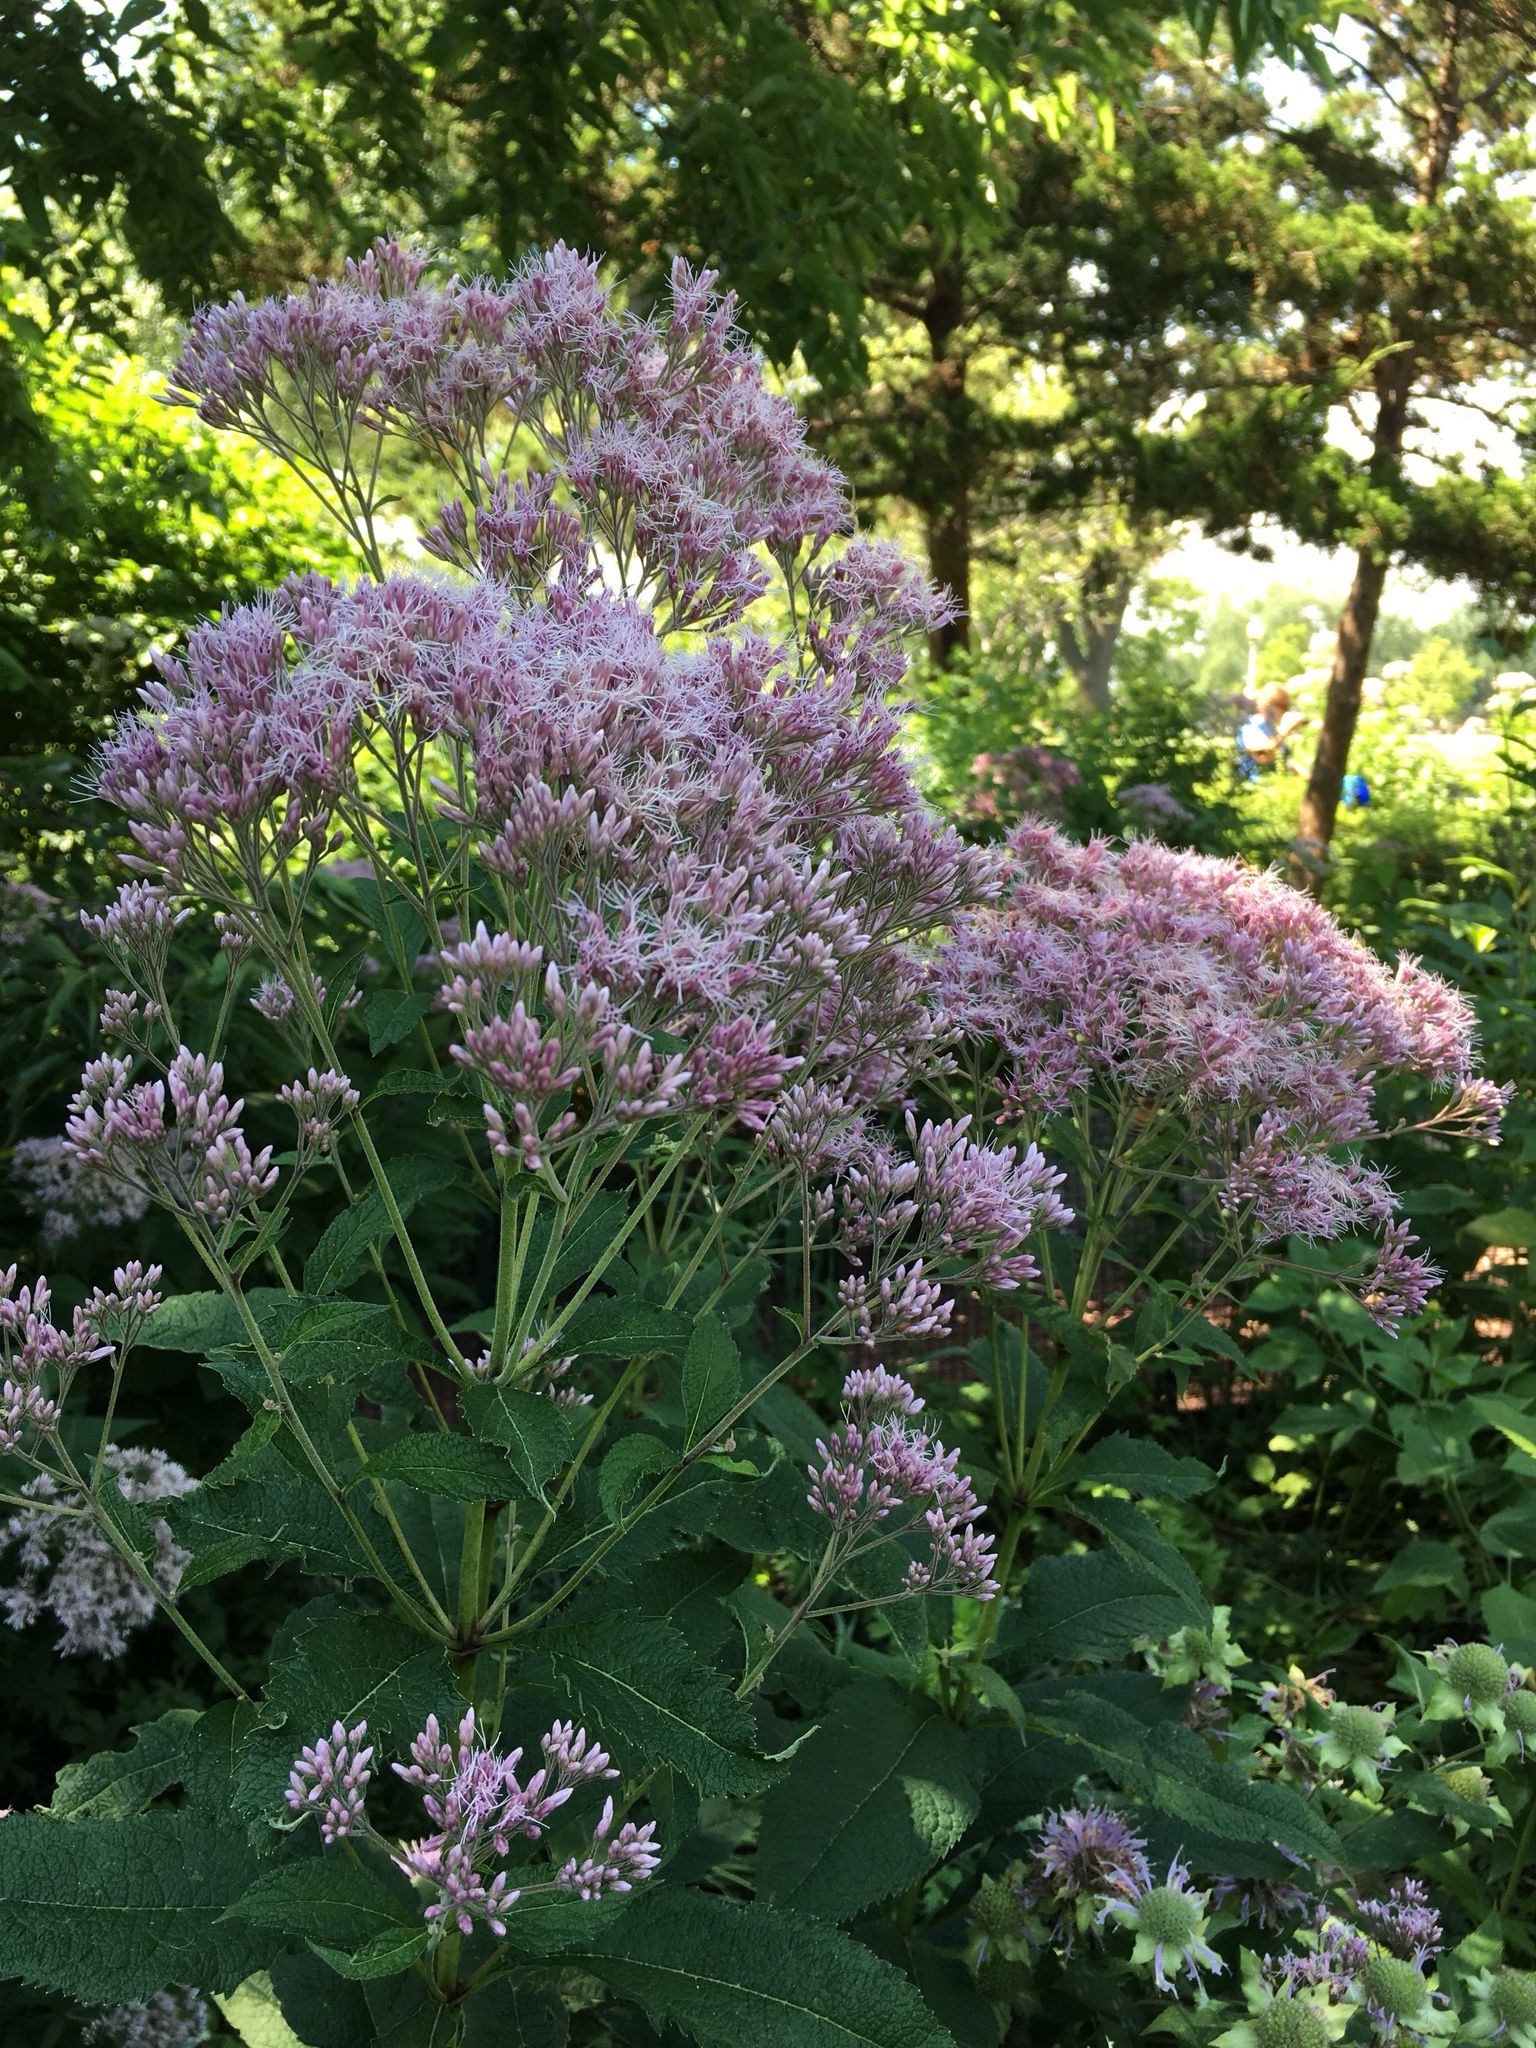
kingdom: Plantae
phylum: Tracheophyta
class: Magnoliopsida
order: Asterales
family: Asteraceae
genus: Eutrochium
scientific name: Eutrochium purpureum
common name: Gravelroot
